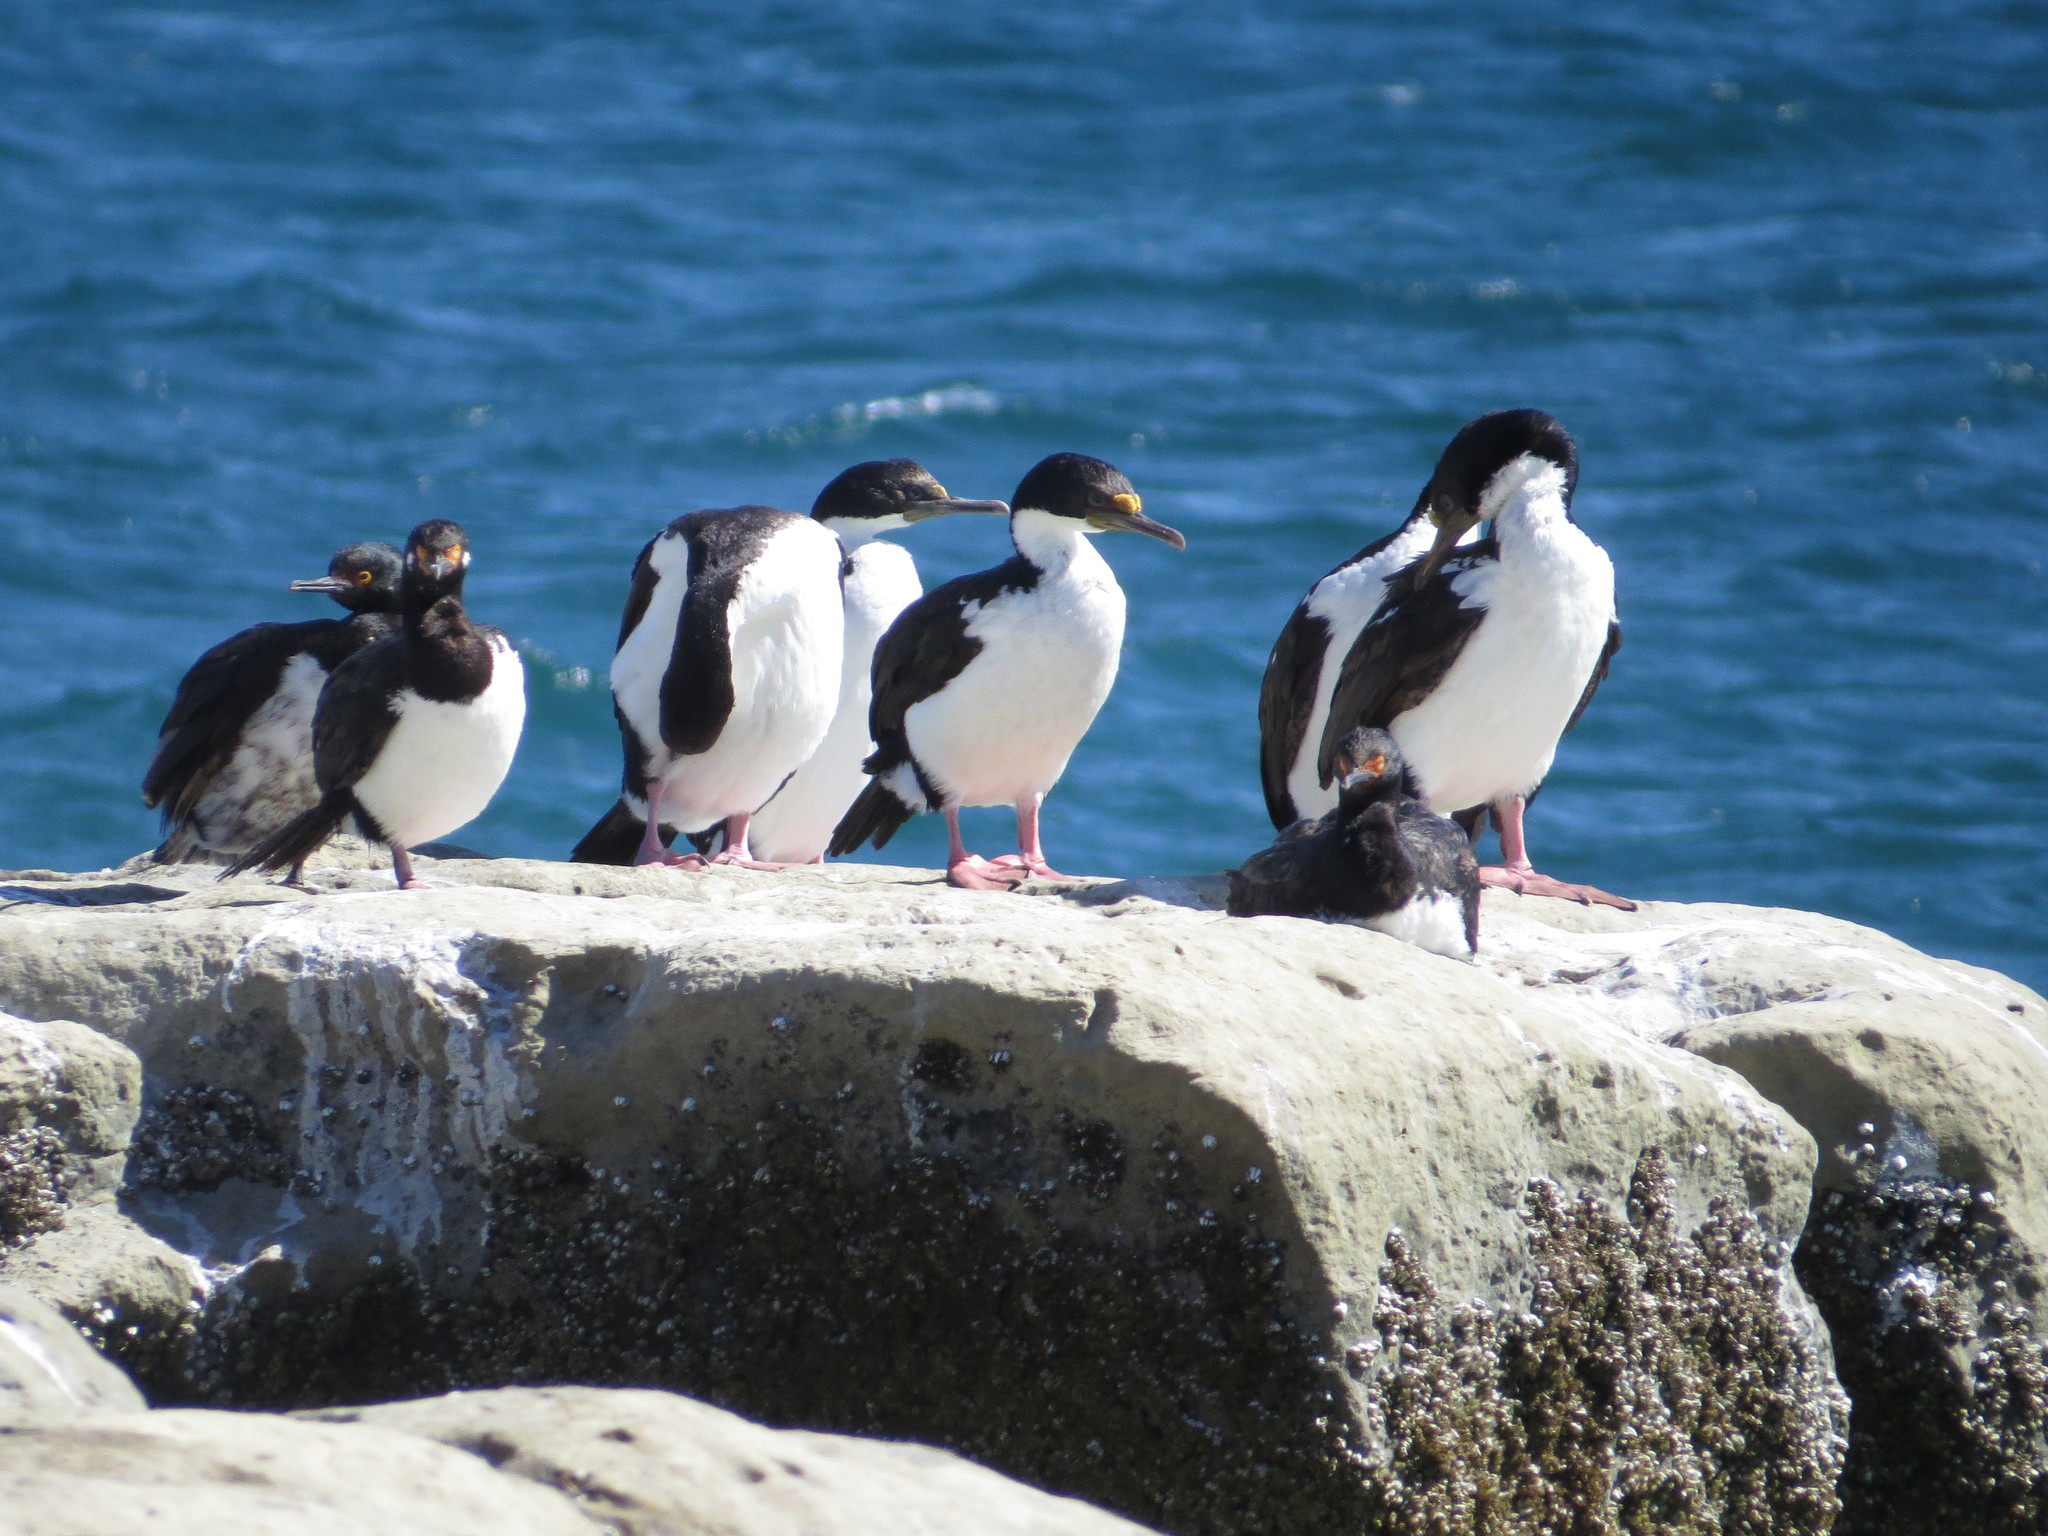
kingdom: Animalia
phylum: Chordata
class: Aves
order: Suliformes
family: Phalacrocoracidae
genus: Leucocarbo
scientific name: Leucocarbo atriceps
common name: Imperial shag
